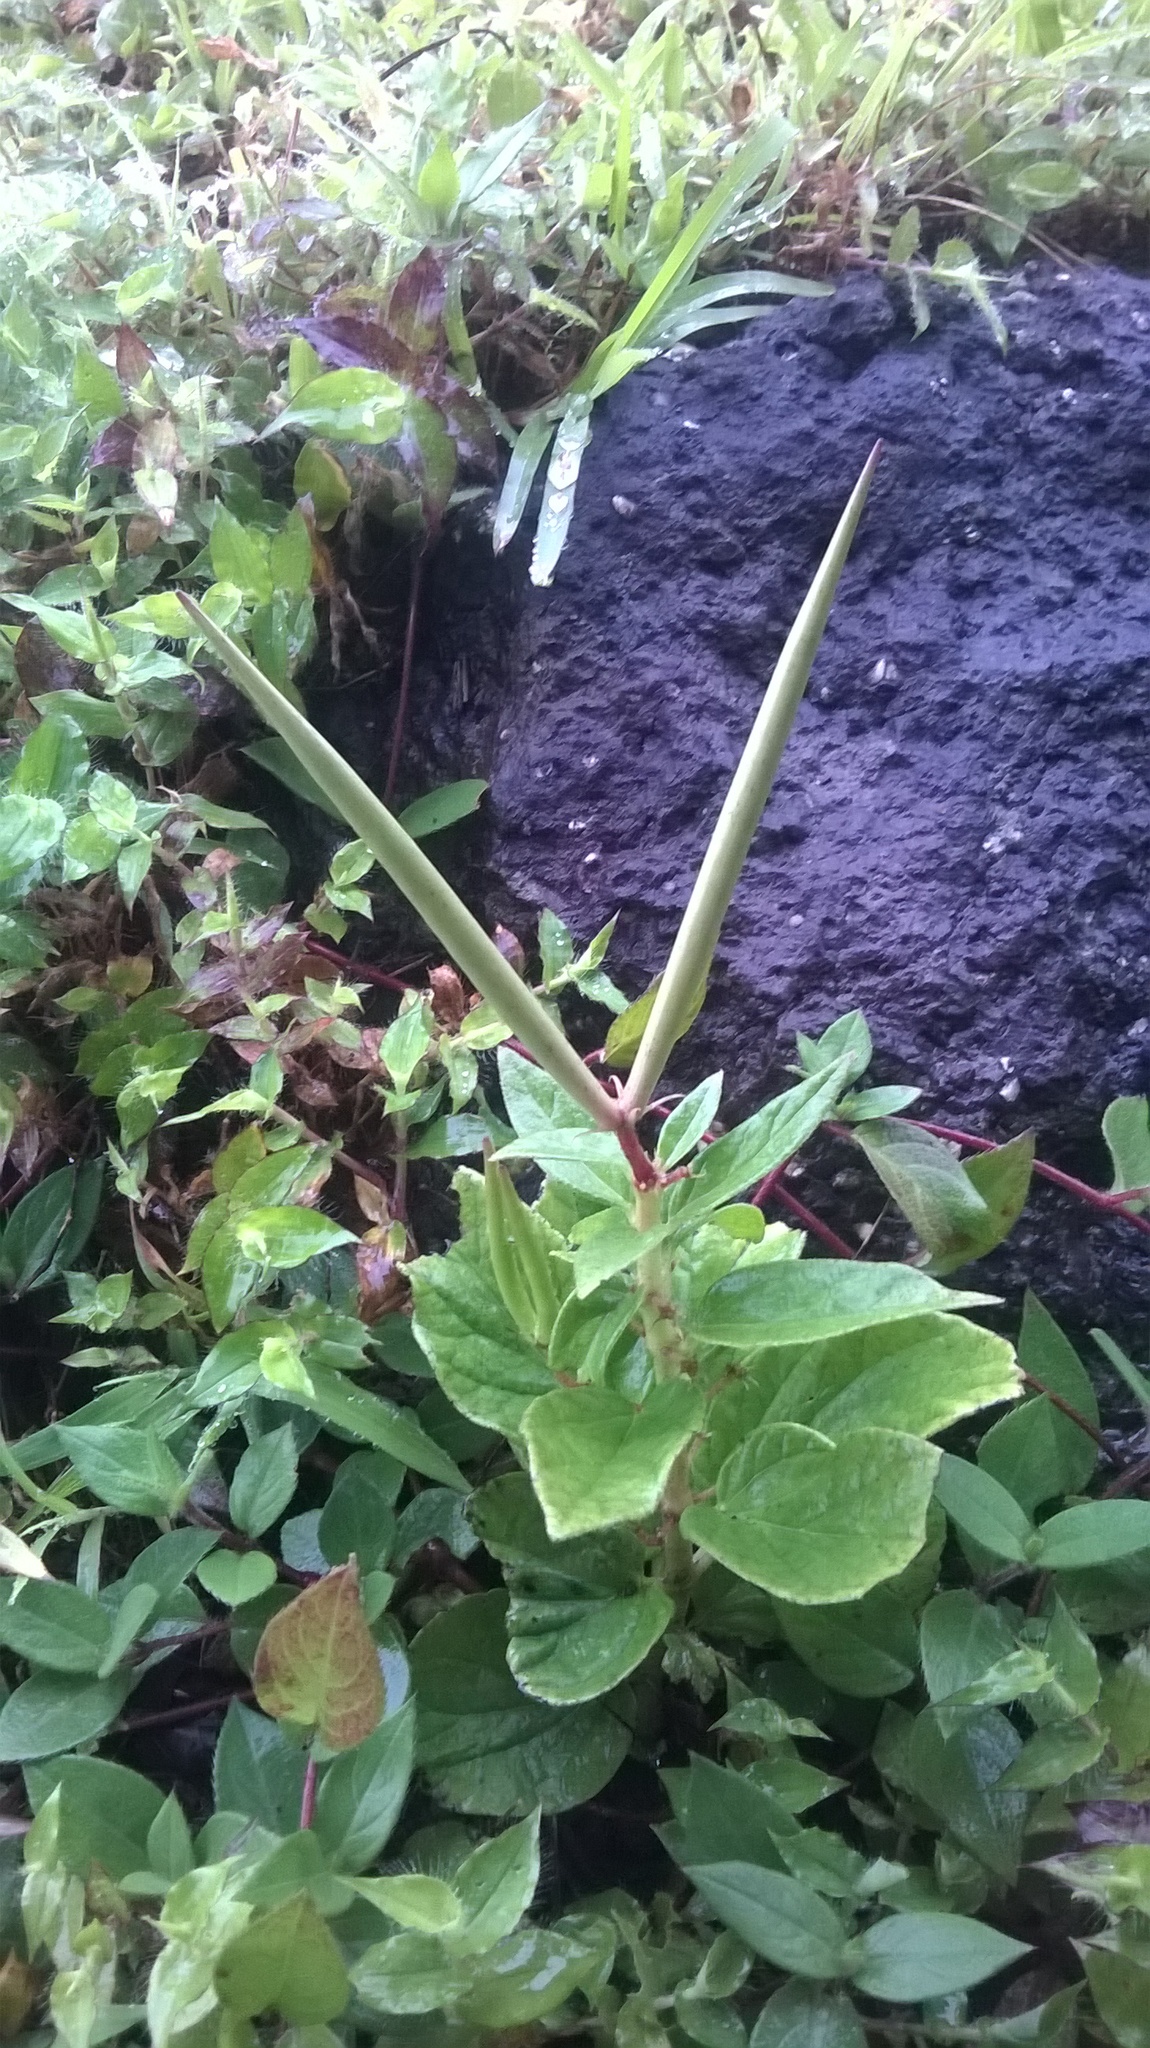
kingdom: Plantae
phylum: Tracheophyta
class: Magnoliopsida
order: Gentianales
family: Apocynaceae
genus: Ceropegia
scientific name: Ceropegia lawii
